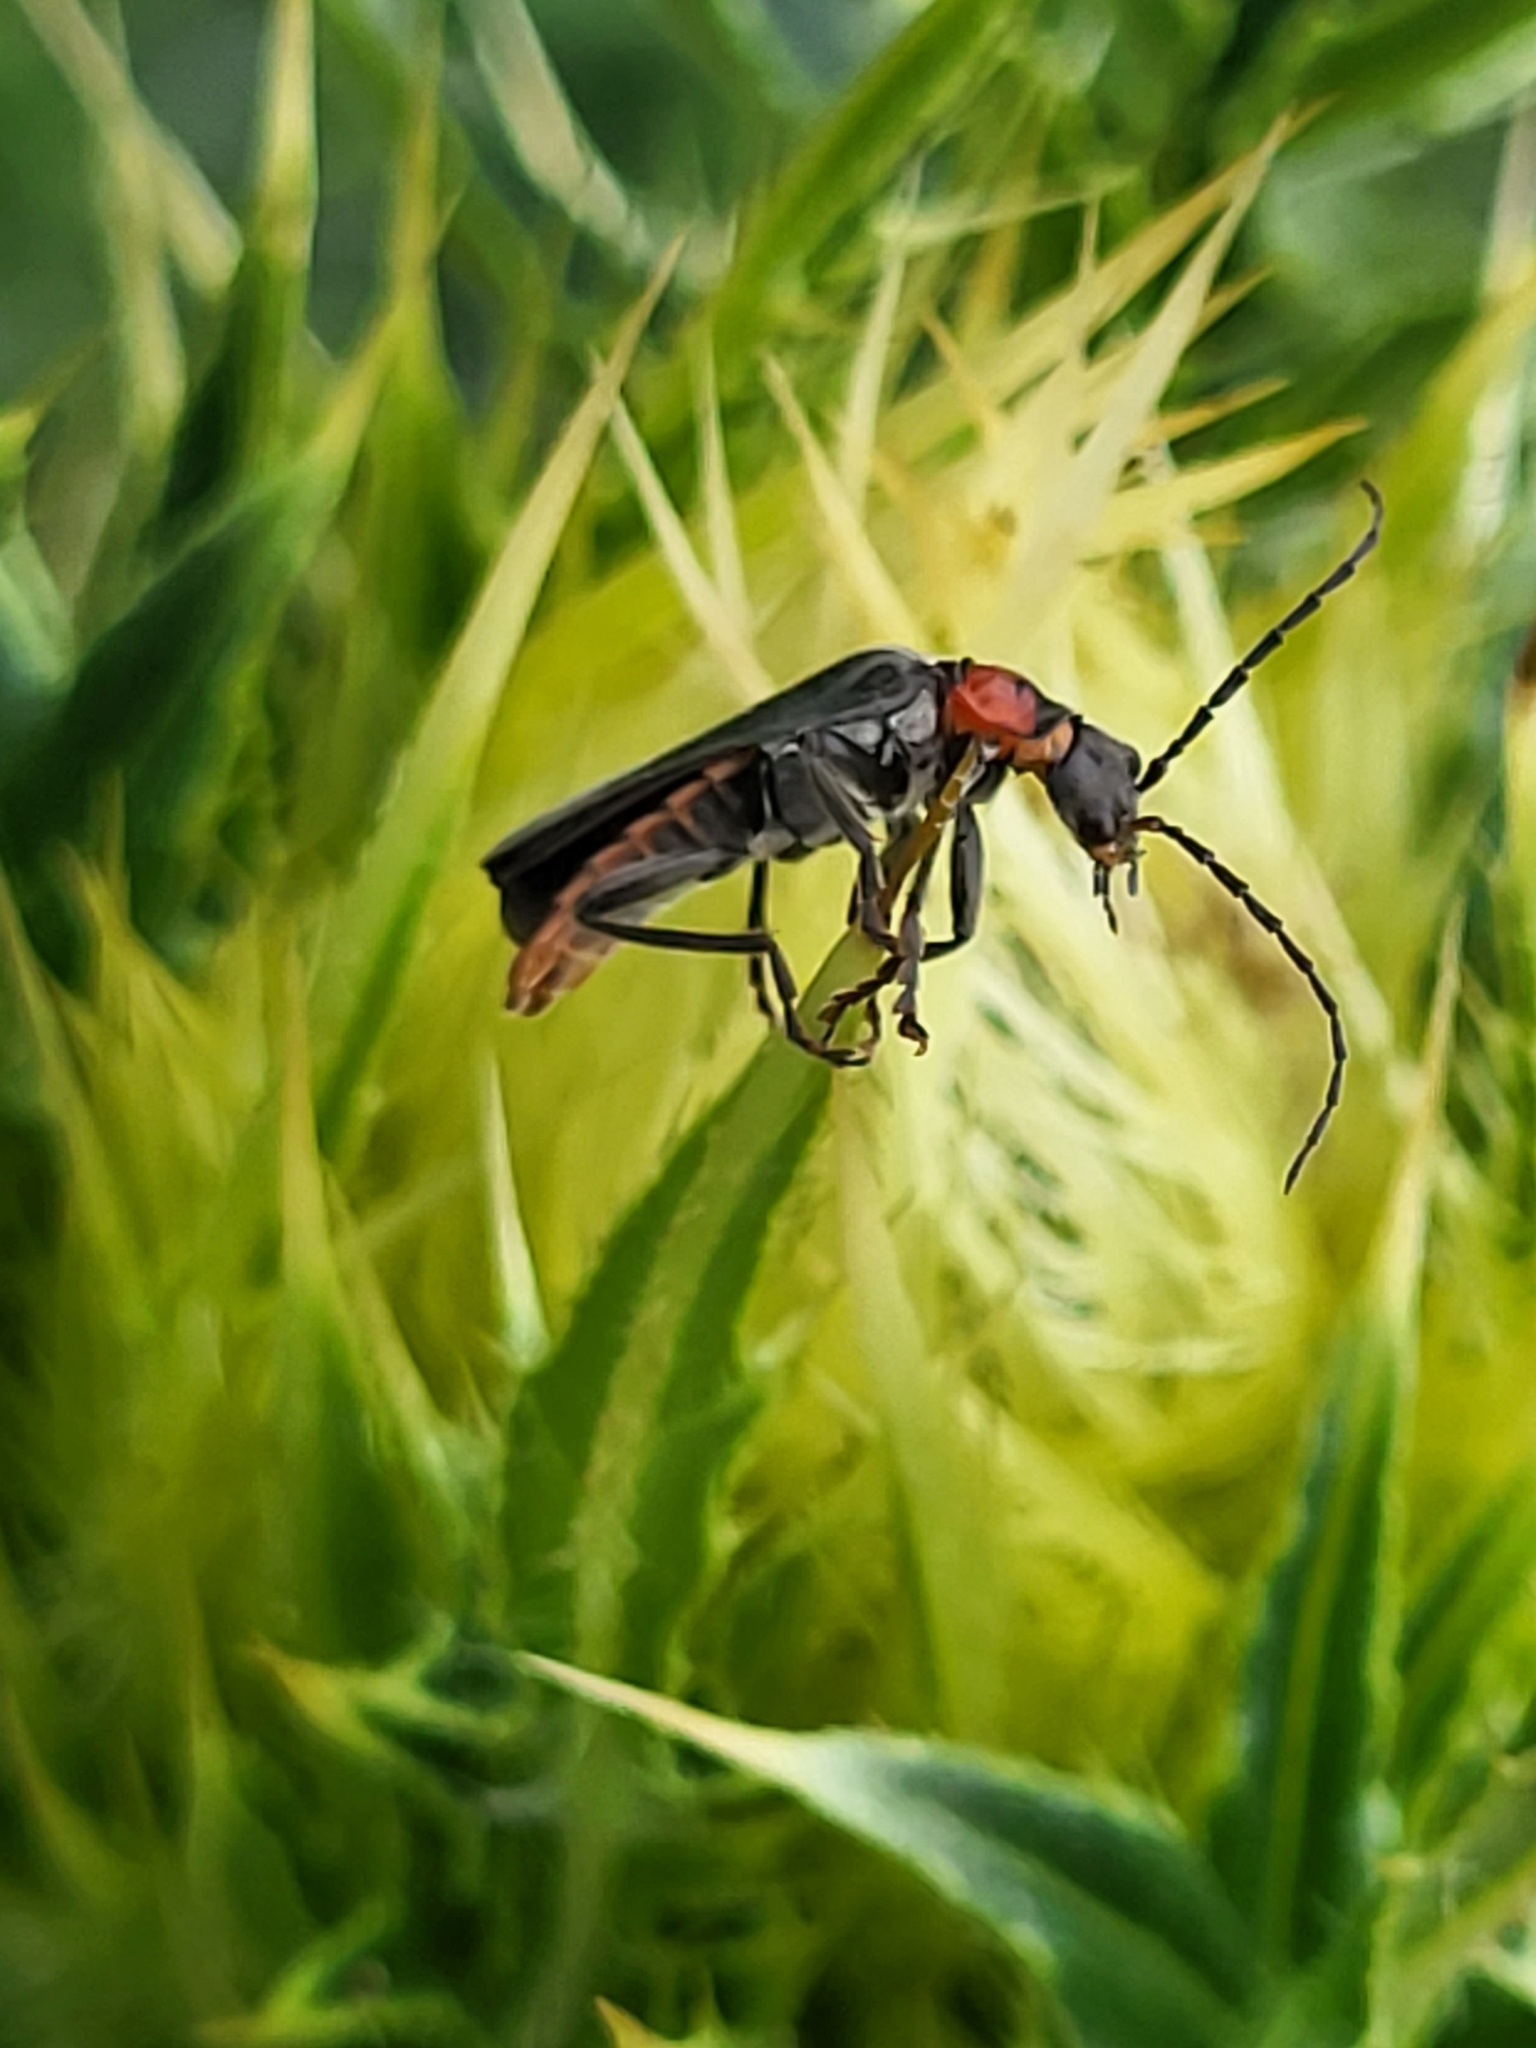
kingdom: Animalia
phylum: Arthropoda
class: Insecta
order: Coleoptera
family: Cantharidae
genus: Cordicantharis
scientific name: Cordicantharis cordicollis
